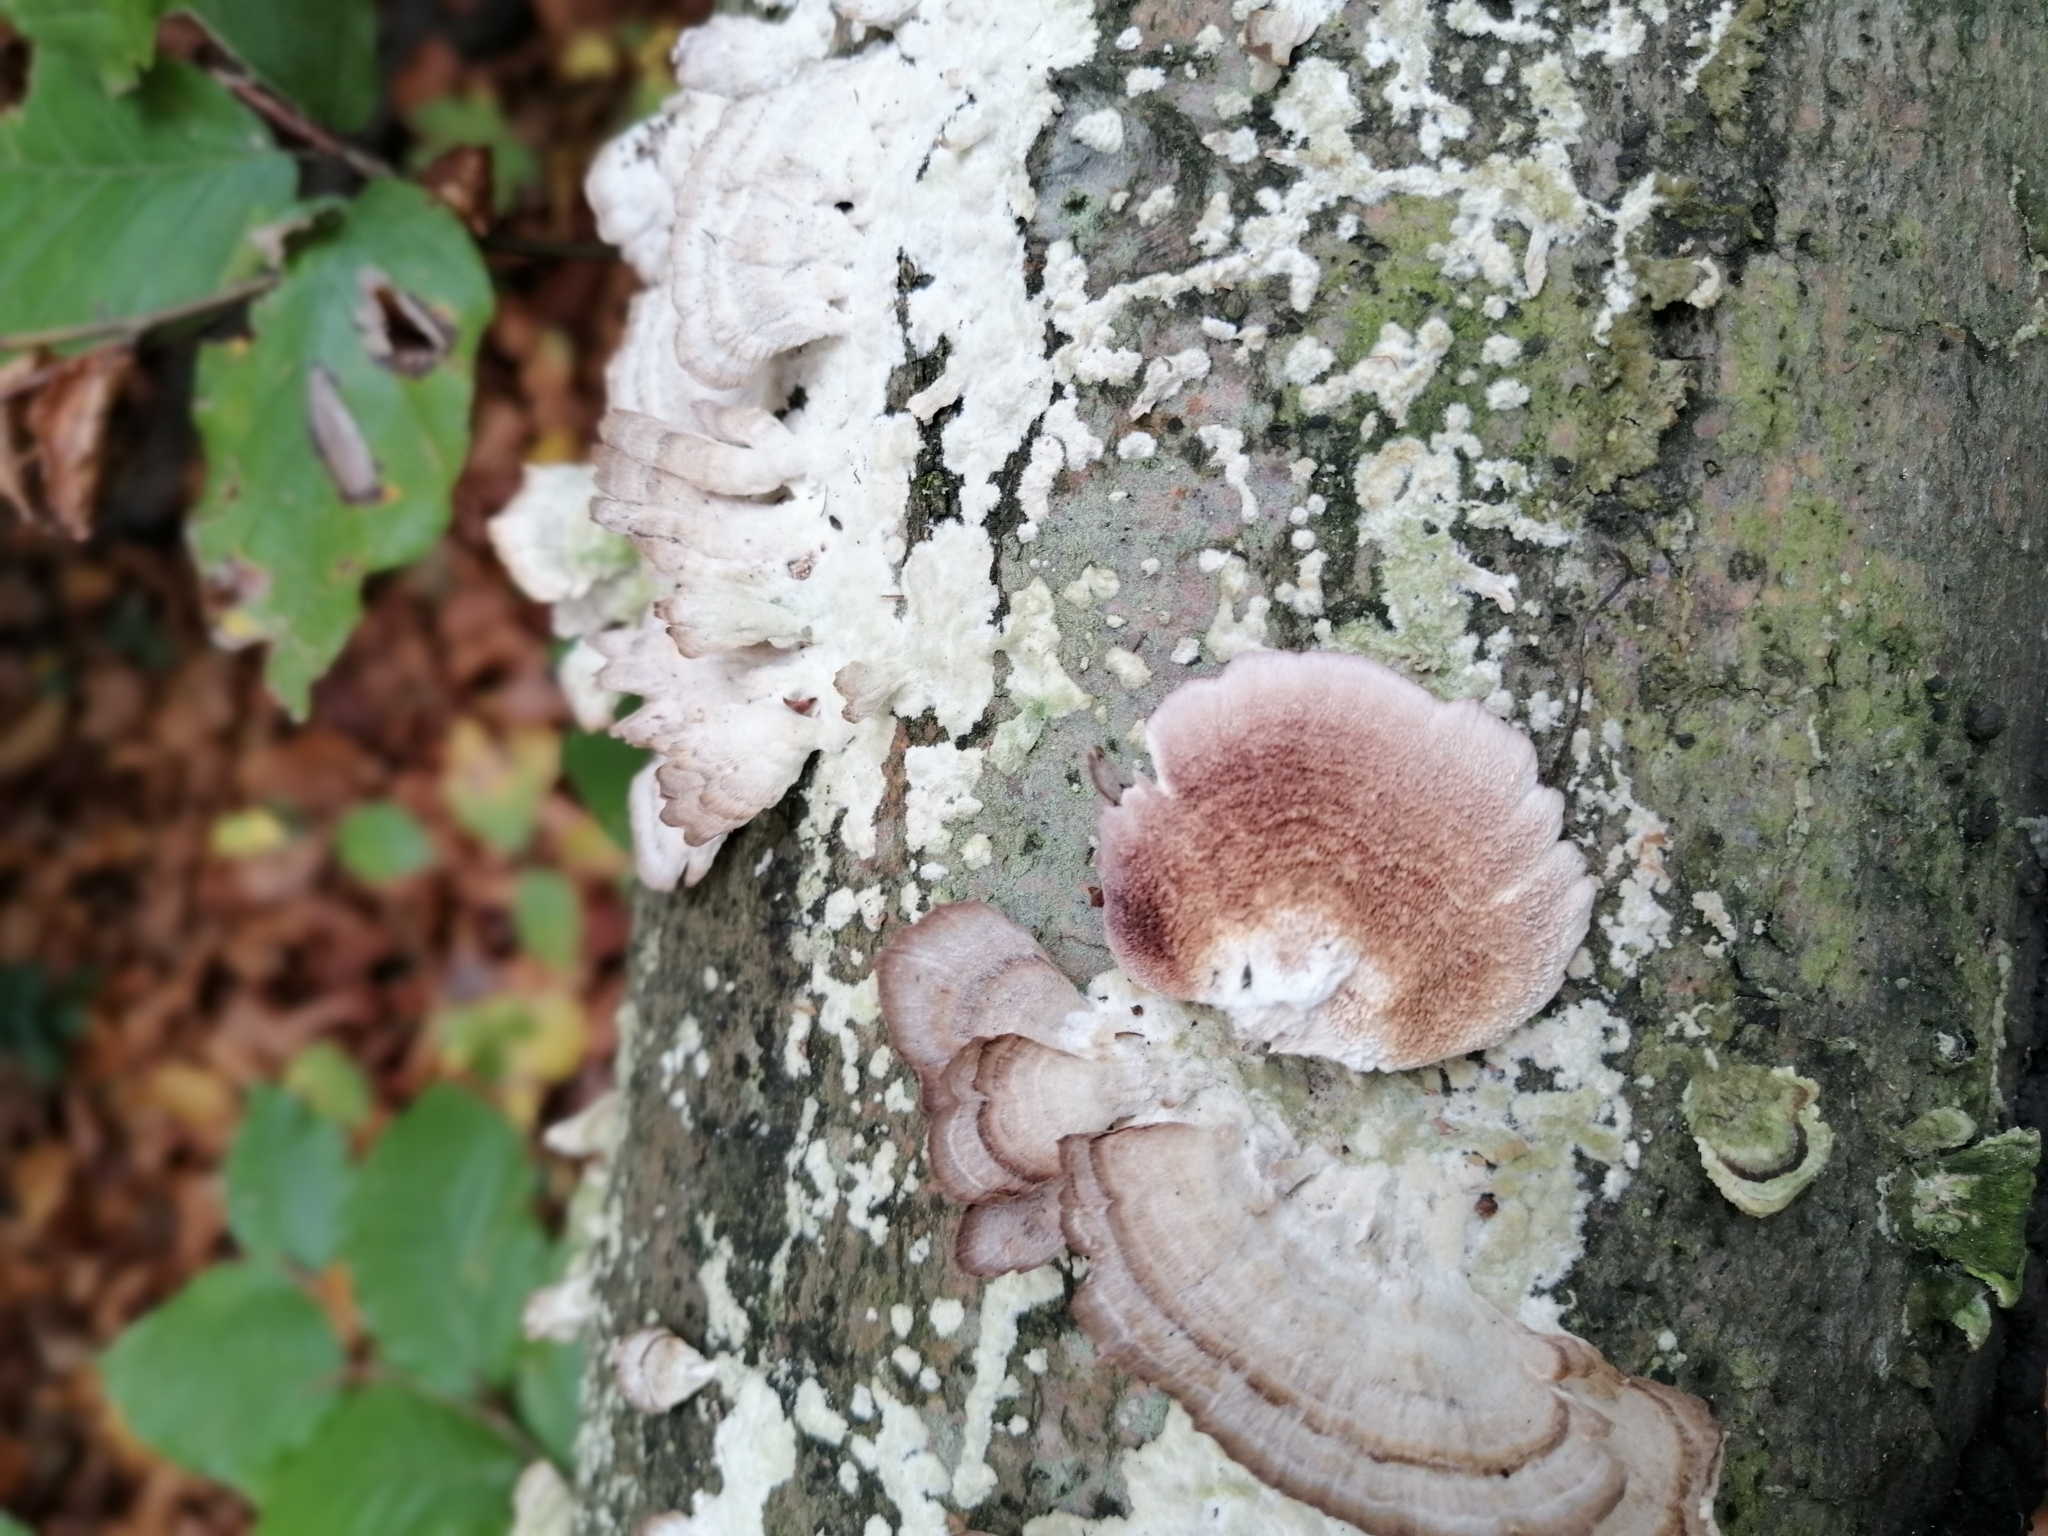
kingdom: Fungi
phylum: Basidiomycota
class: Agaricomycetes
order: Hymenochaetales
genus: Trichaptum
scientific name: Trichaptum biforme
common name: Violet-toothed polypore
